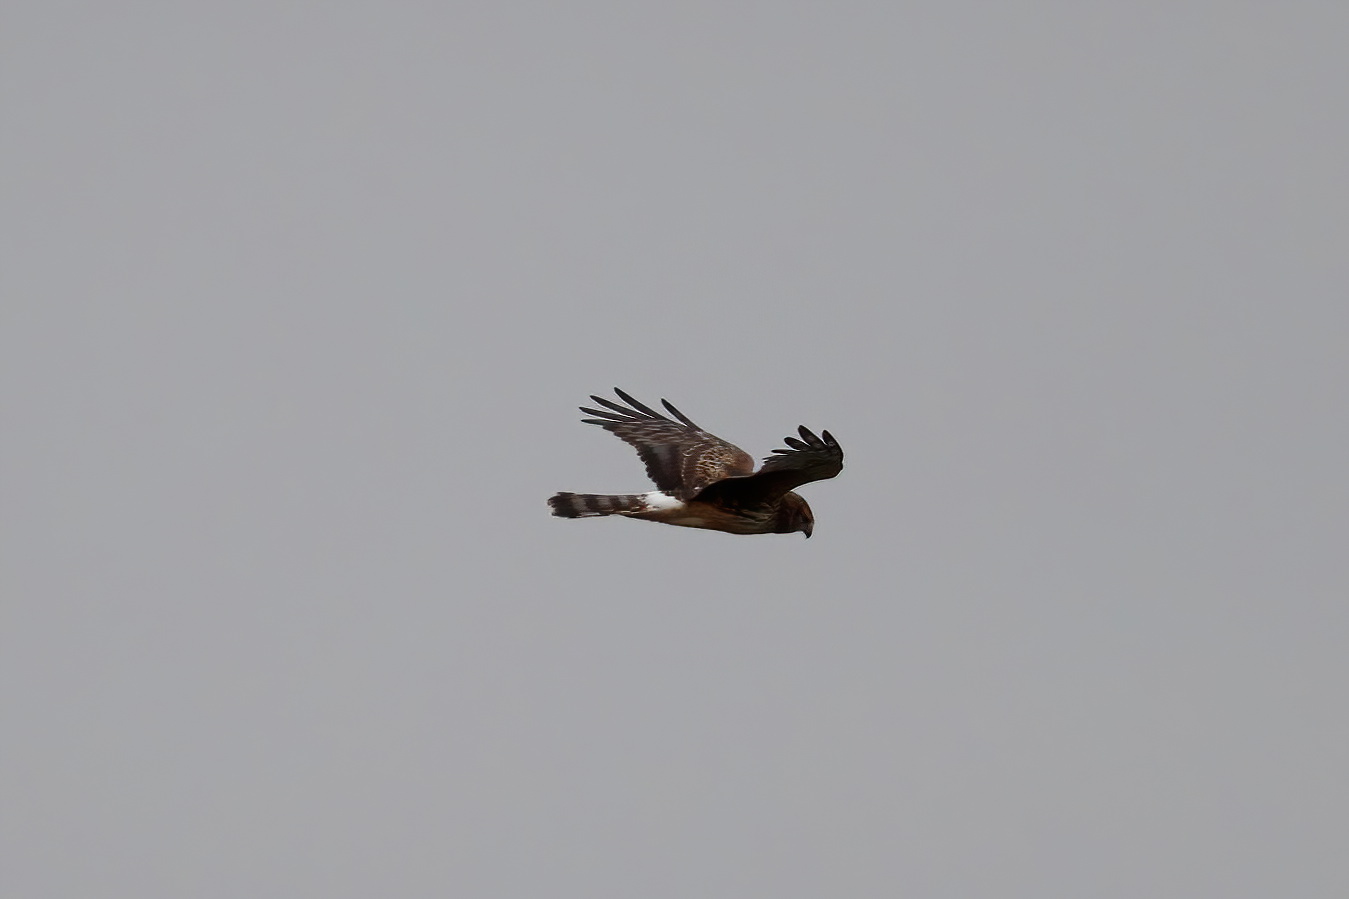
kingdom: Animalia
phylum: Chordata
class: Aves
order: Accipitriformes
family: Accipitridae
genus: Circus
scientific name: Circus cyaneus
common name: Hen harrier
